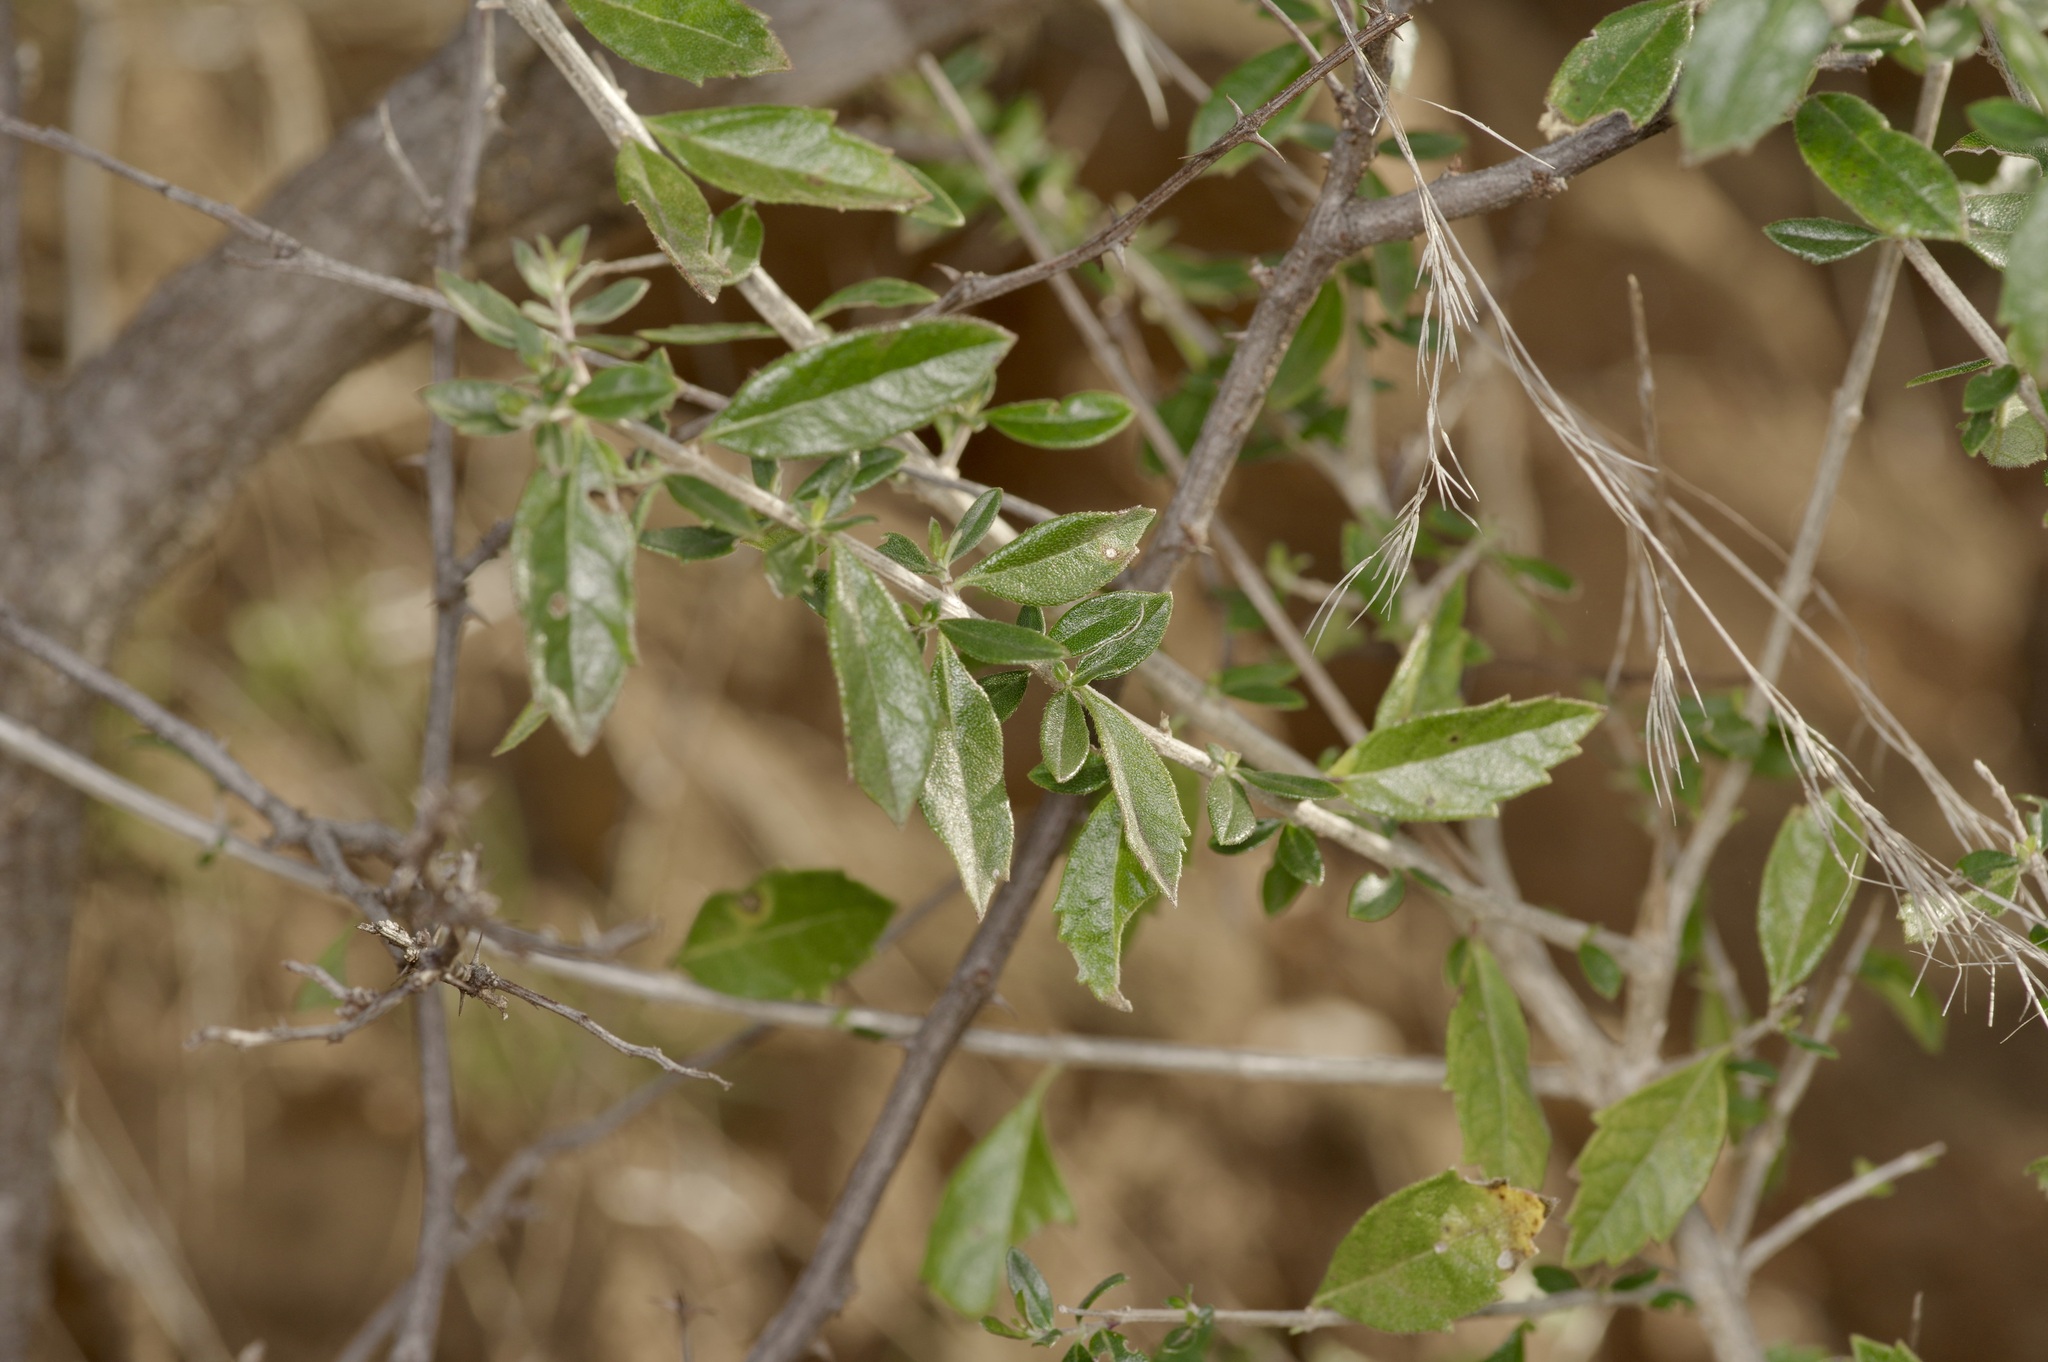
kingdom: Plantae
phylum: Tracheophyta
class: Magnoliopsida
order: Lamiales
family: Verbenaceae
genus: Aloysia
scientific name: Aloysia gratissima
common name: Common bee-brush
